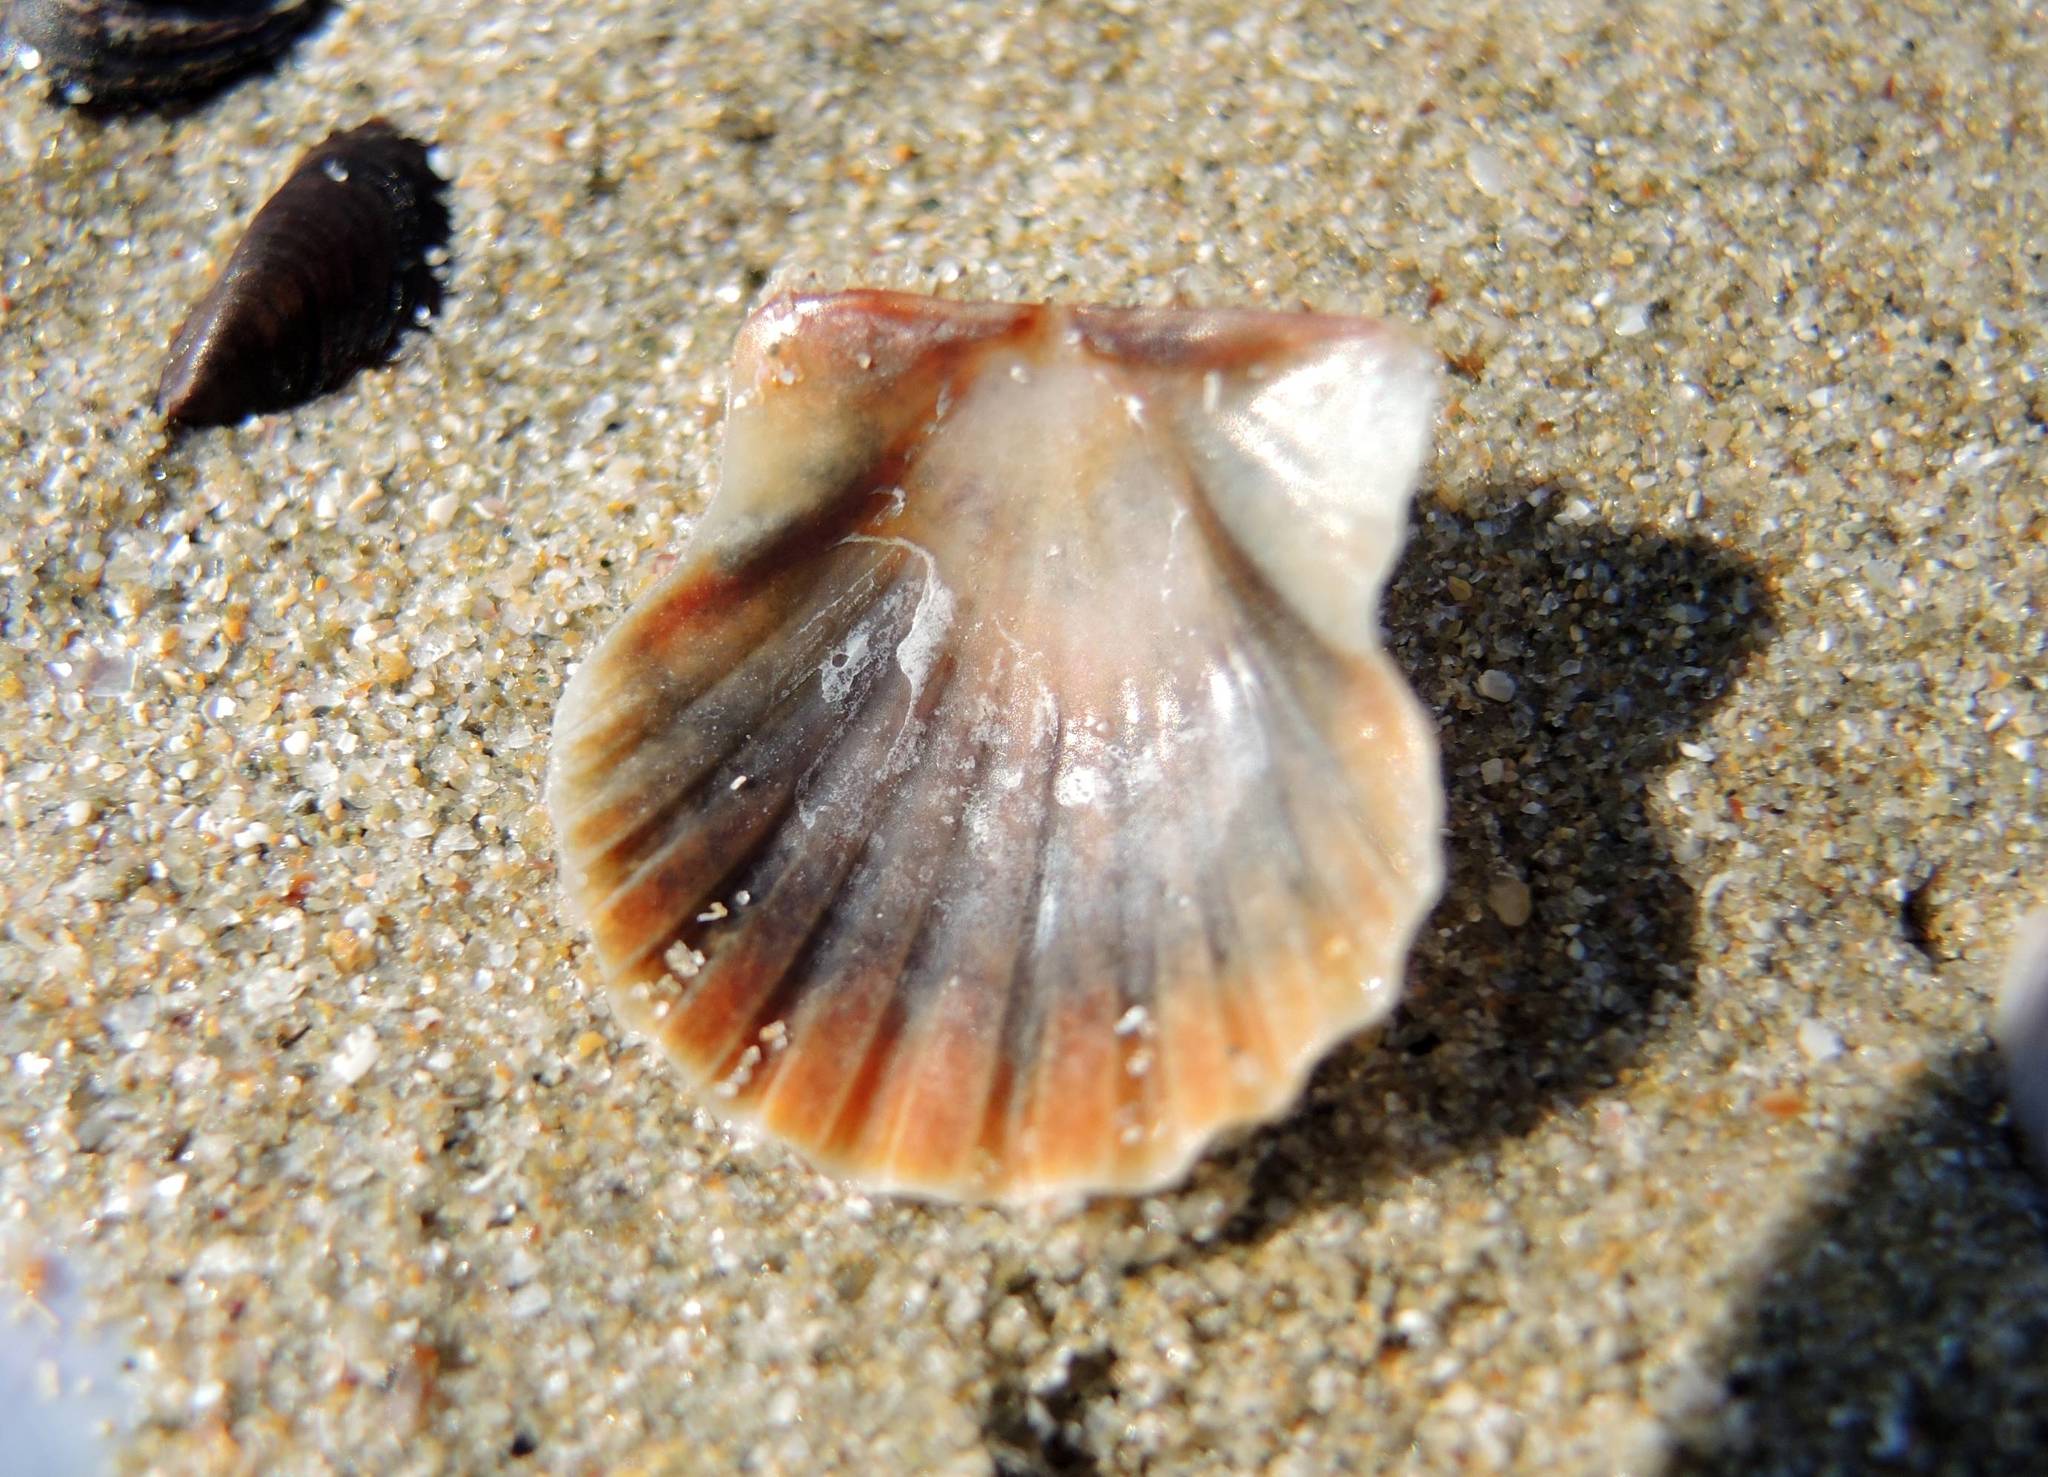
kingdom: Animalia
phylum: Mollusca
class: Bivalvia
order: Pectinida
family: Pectinidae
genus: Flexopecten
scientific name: Flexopecten glaber
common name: Smooth scallop
